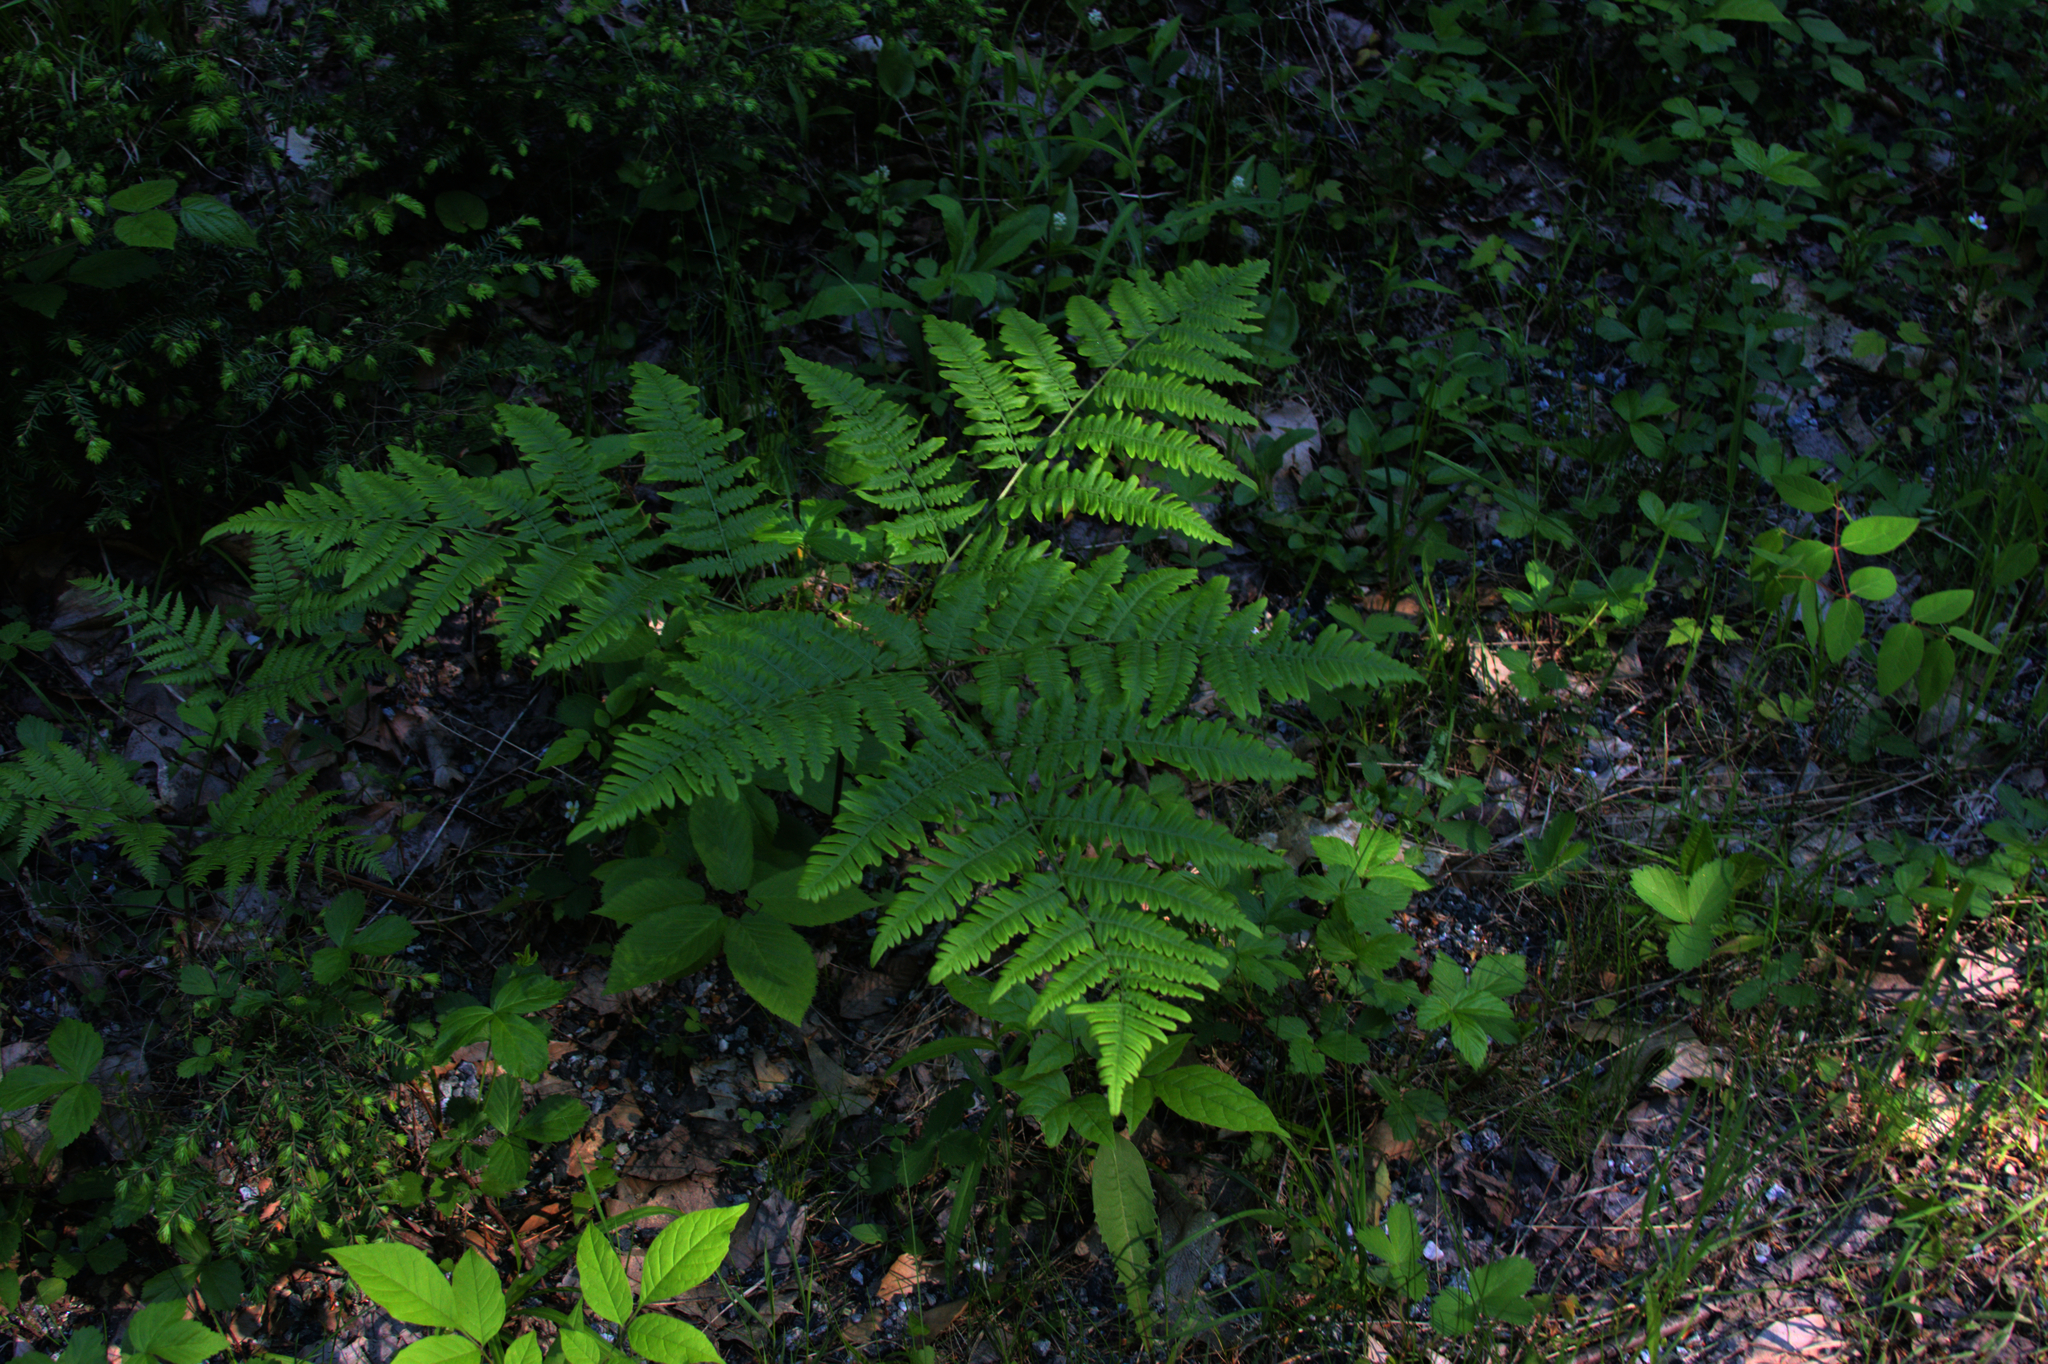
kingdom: Plantae
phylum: Tracheophyta
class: Polypodiopsida
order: Polypodiales
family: Dennstaedtiaceae
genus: Pteridium
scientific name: Pteridium aquilinum
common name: Bracken
